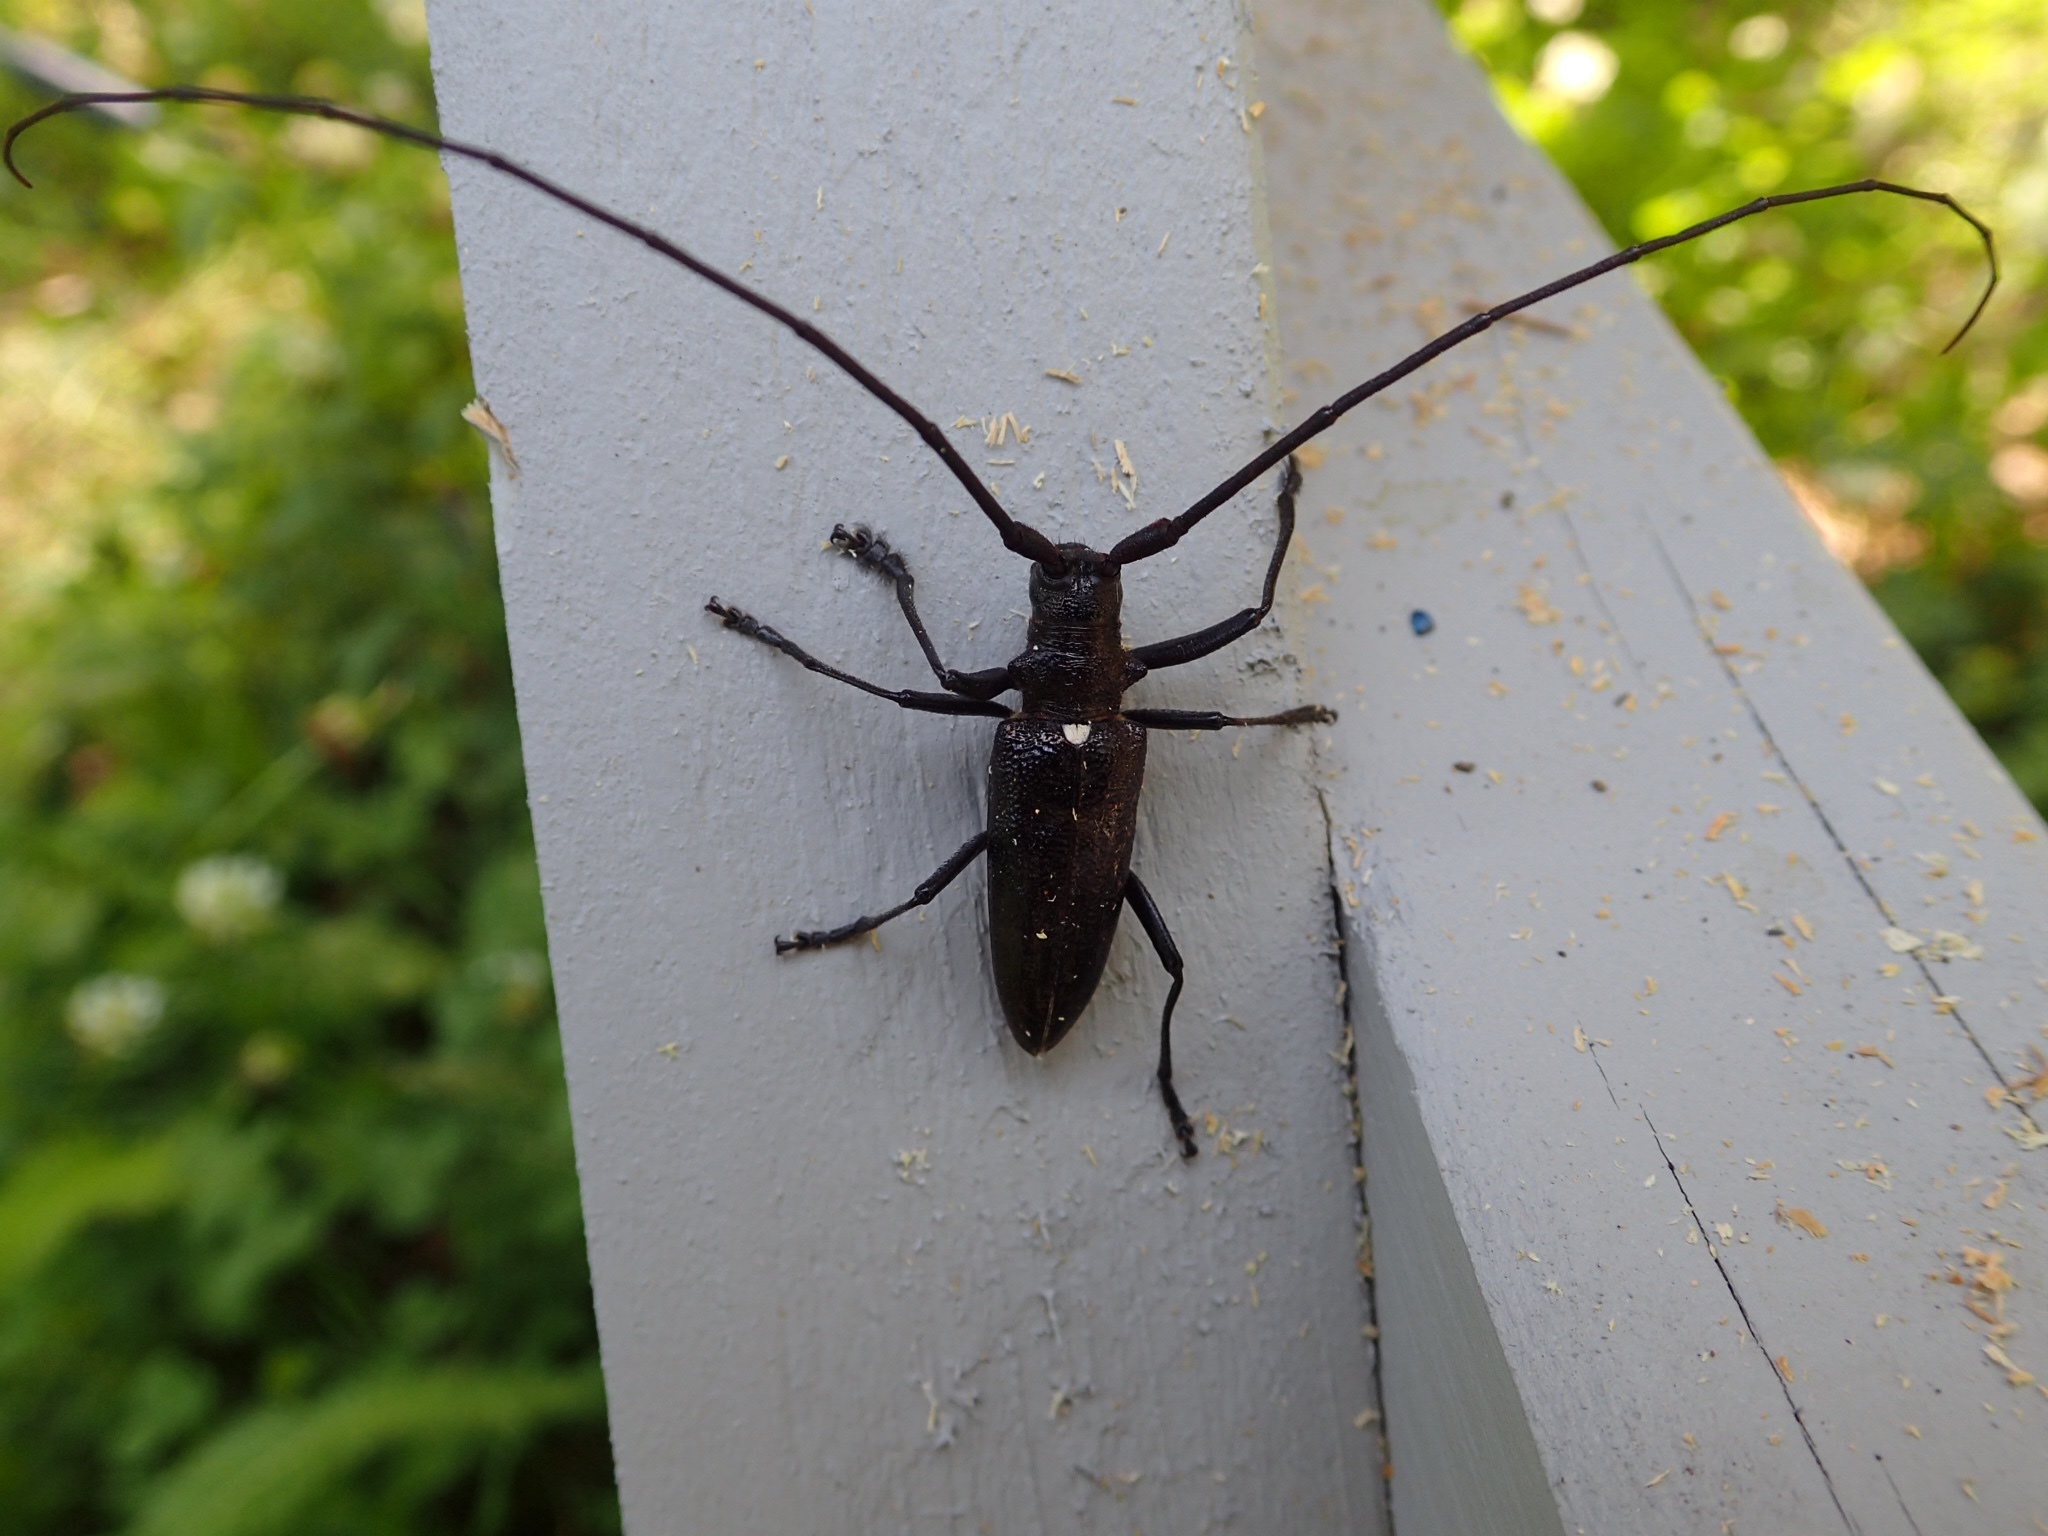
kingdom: Animalia
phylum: Arthropoda
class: Insecta
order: Coleoptera
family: Cerambycidae
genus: Monochamus
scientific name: Monochamus scutellatus
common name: White-spotted sawyer beetle
